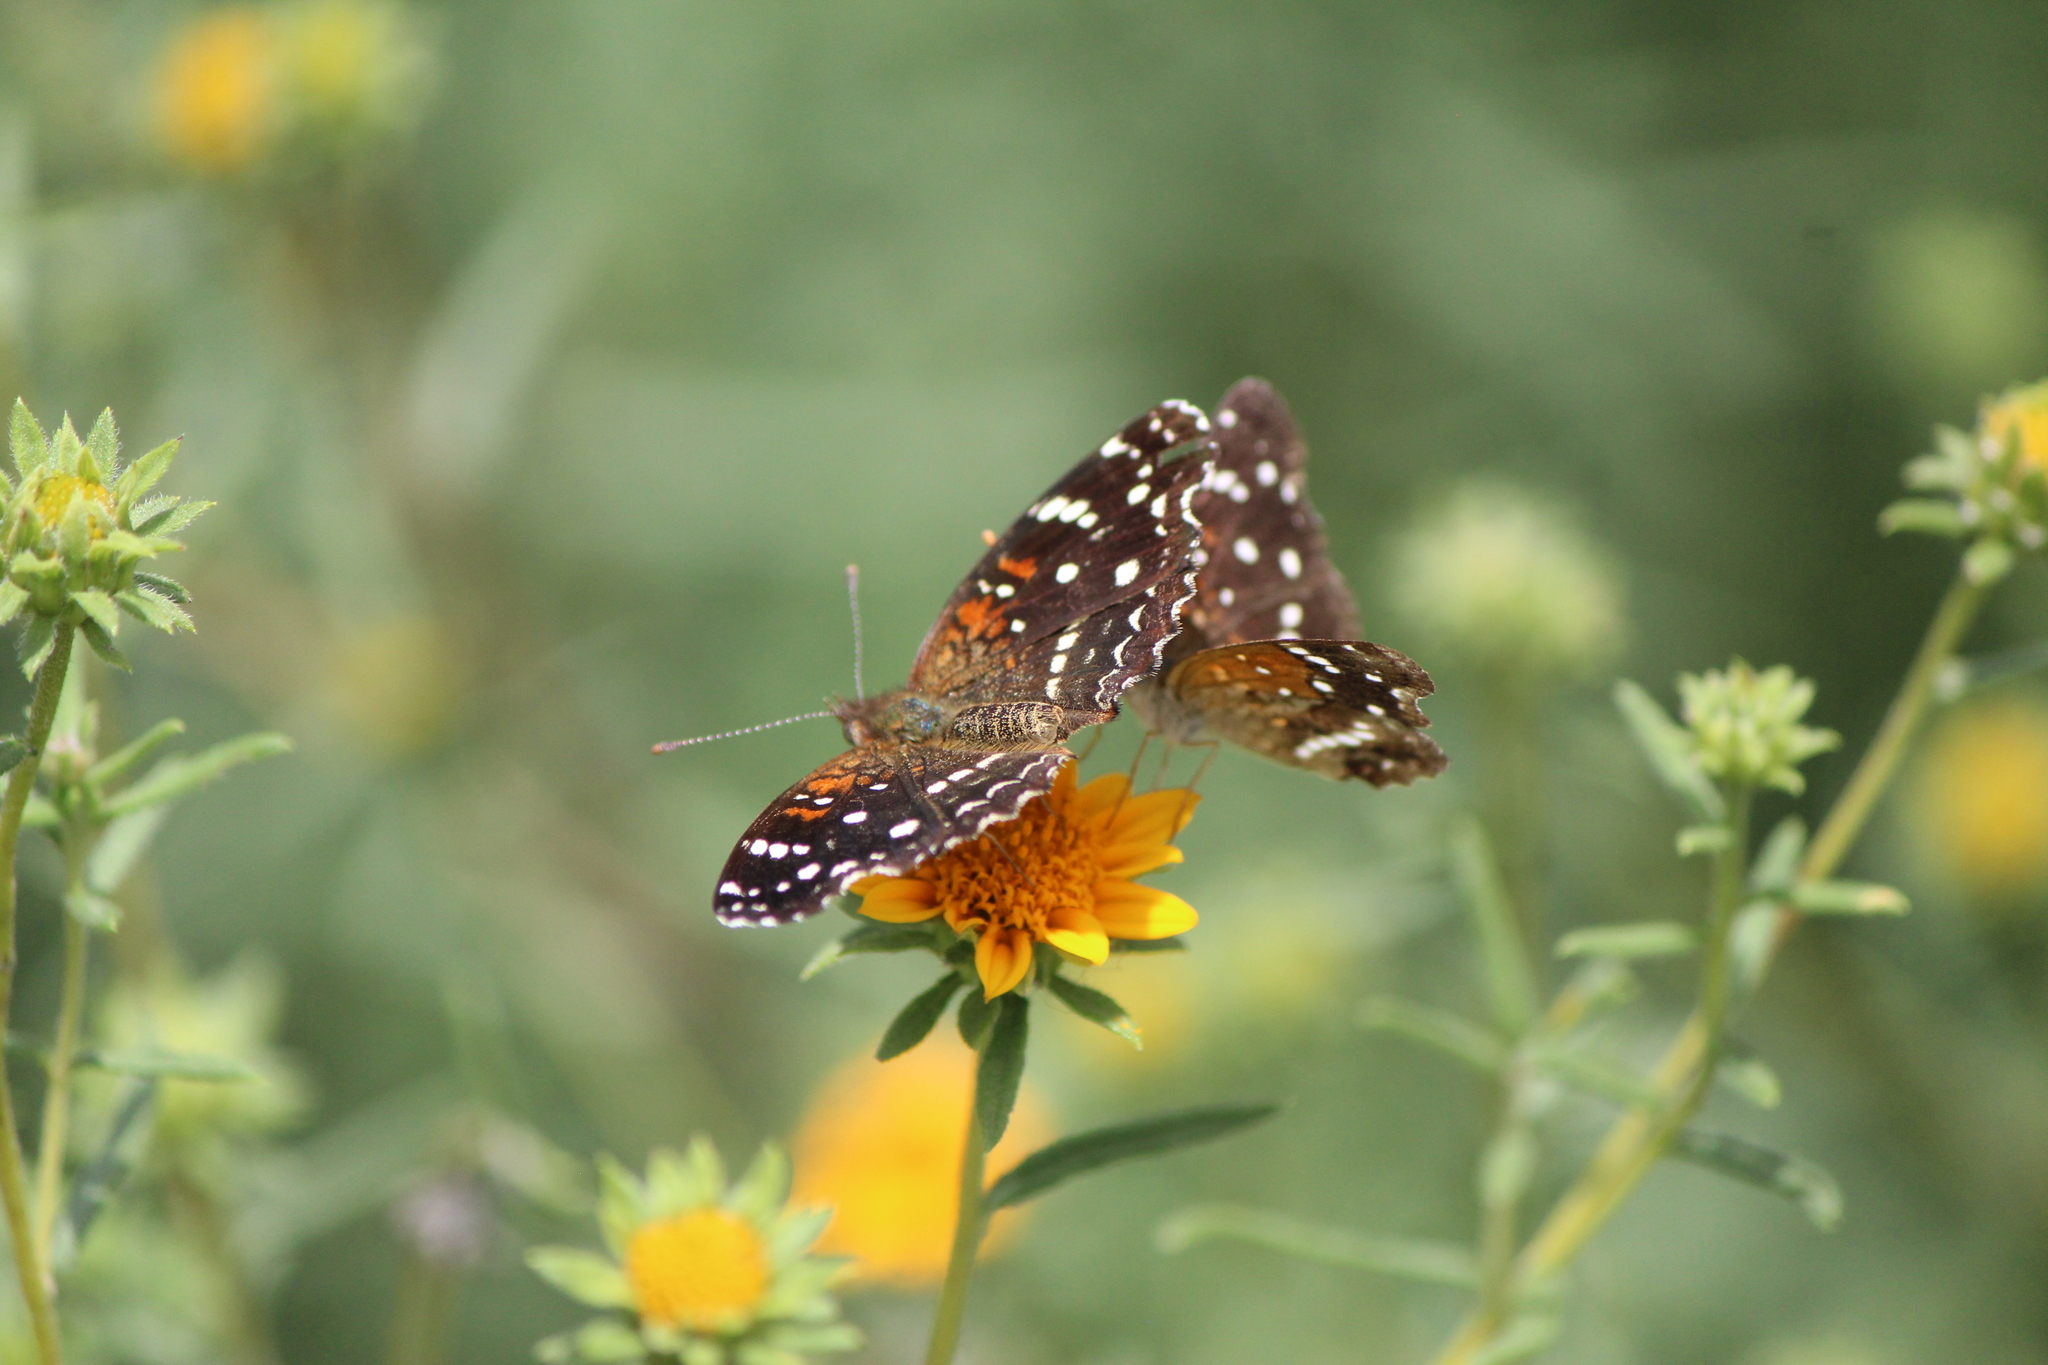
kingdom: Animalia
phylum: Arthropoda
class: Insecta
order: Lepidoptera
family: Nymphalidae
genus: Anthanassa
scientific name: Anthanassa texana
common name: Texan crescent
